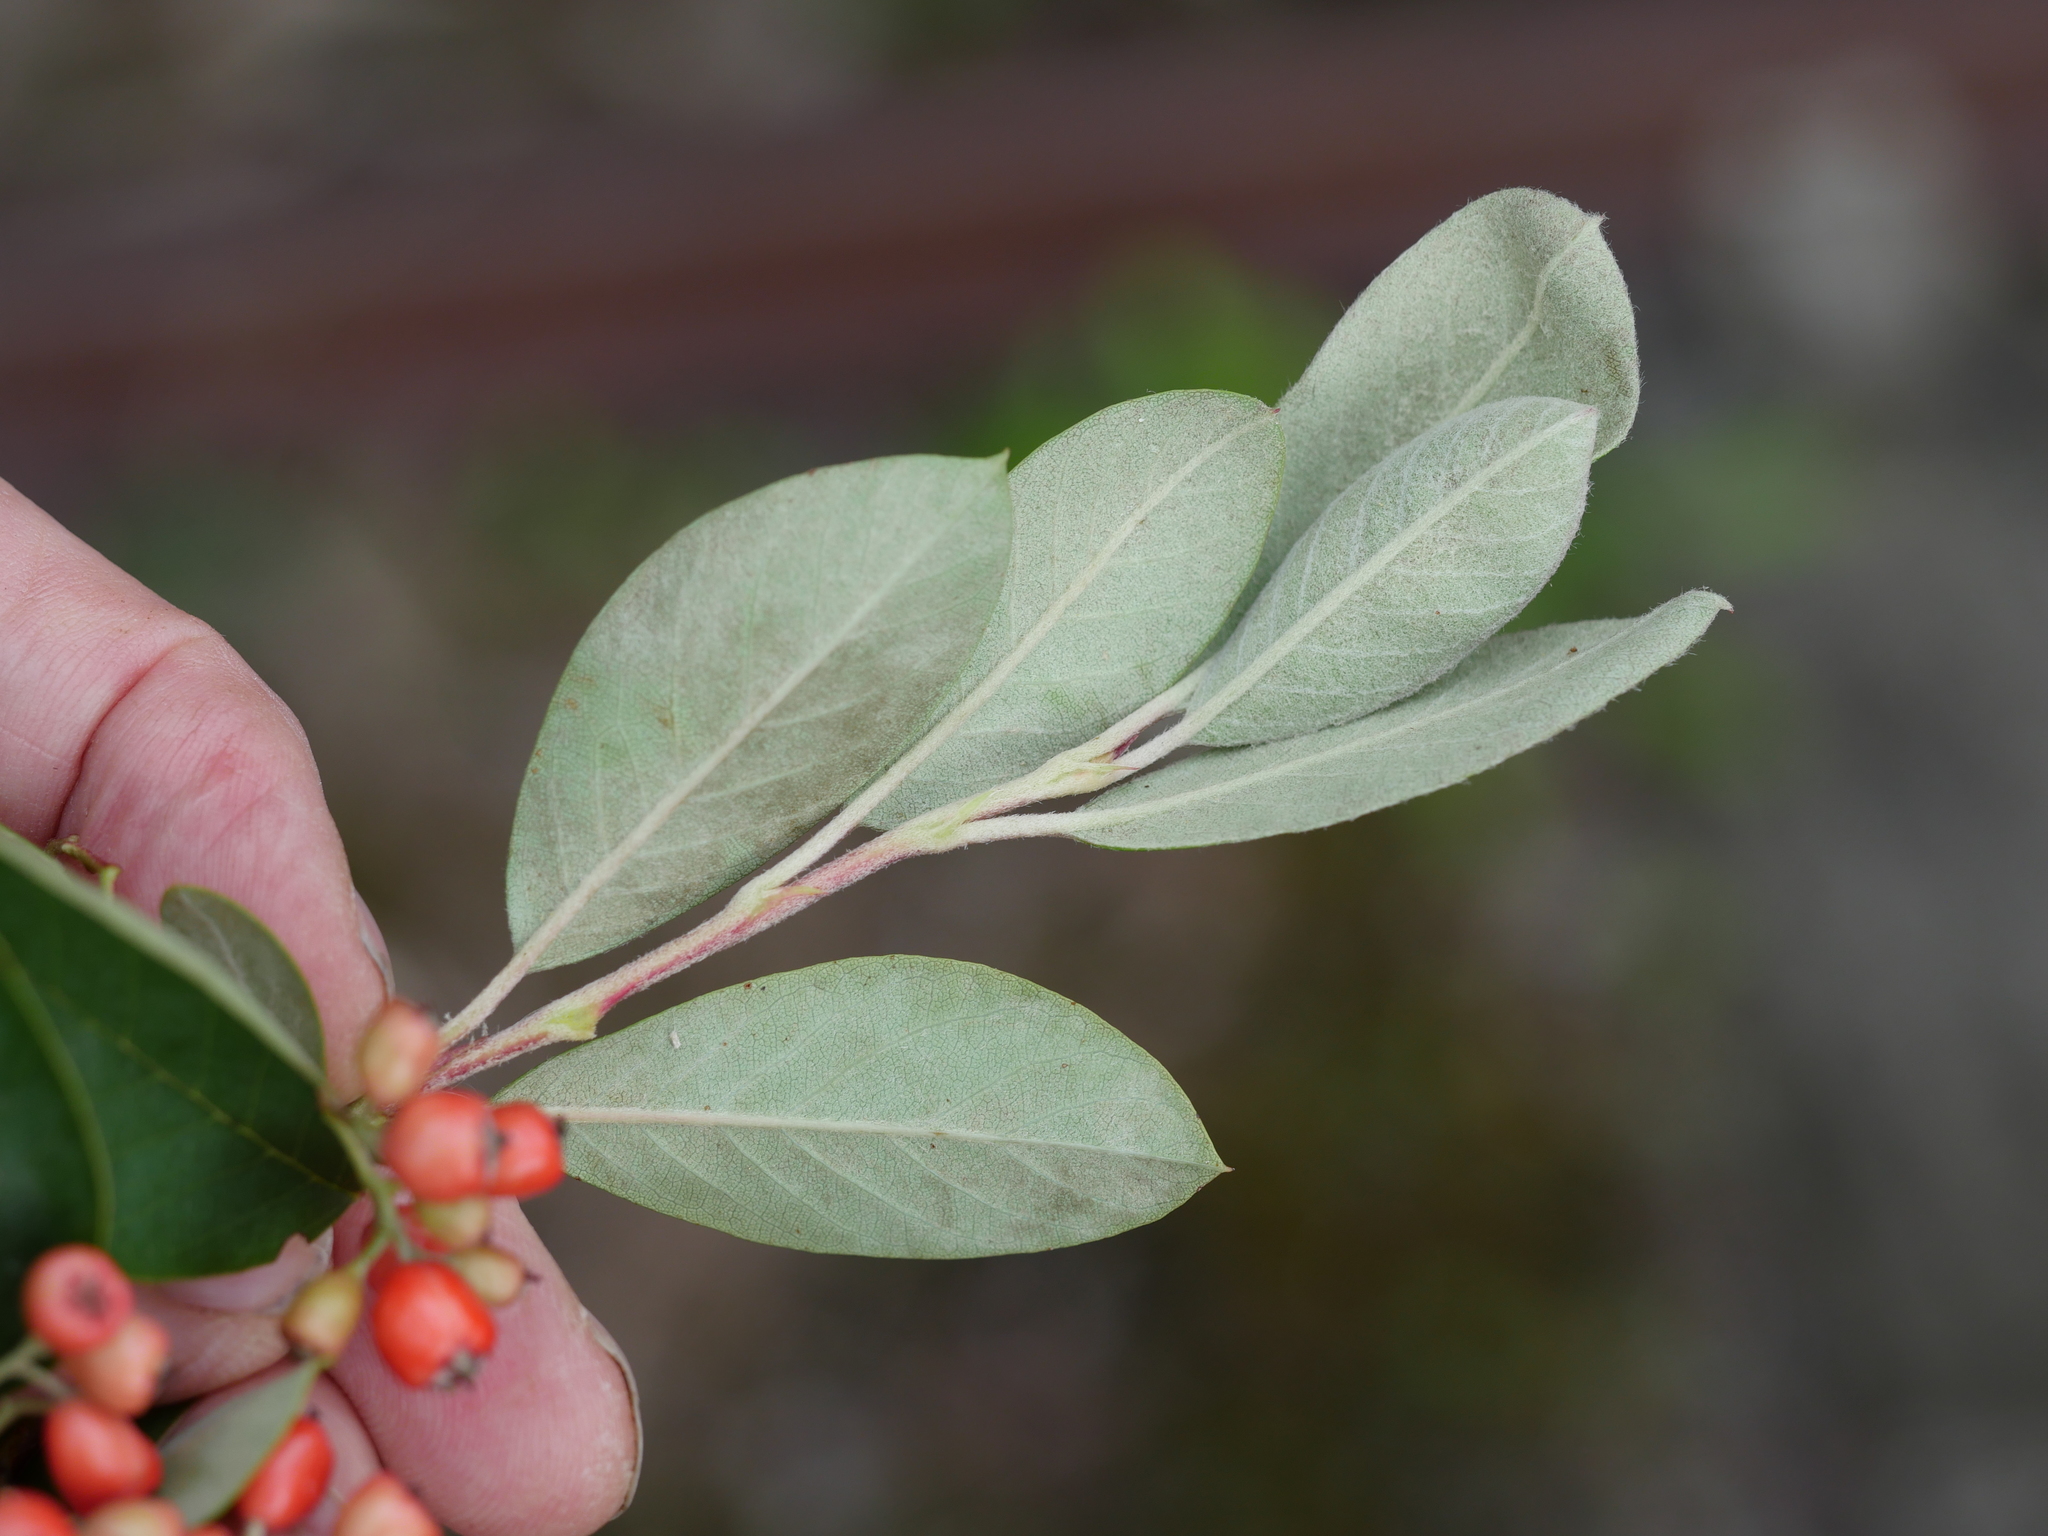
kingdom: Plantae
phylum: Tracheophyta
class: Magnoliopsida
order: Rosales
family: Rosaceae
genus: Cotoneaster
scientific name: Cotoneaster glaucophyllus
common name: Glaucous cotoneaster
